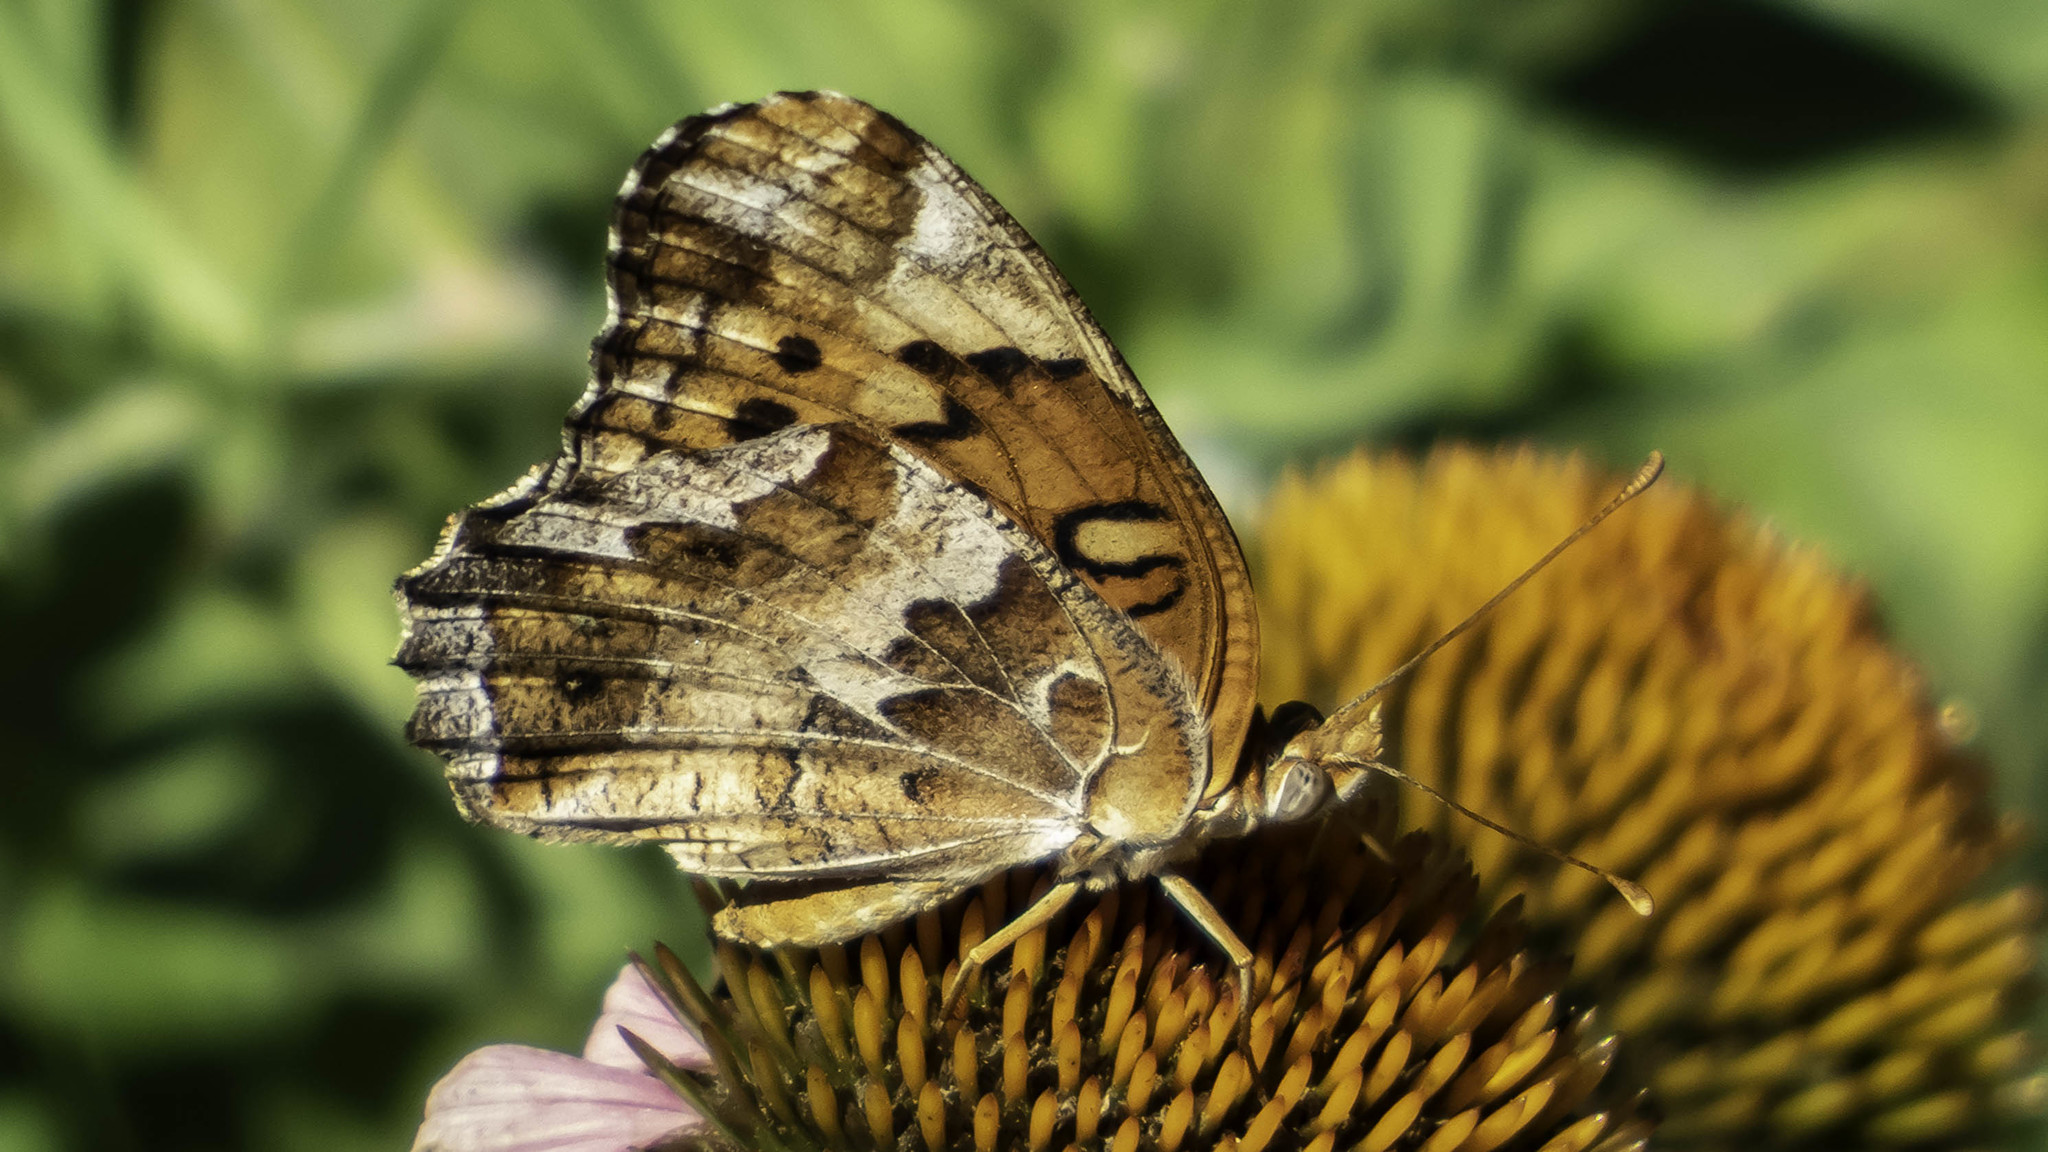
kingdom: Animalia
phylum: Arthropoda
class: Insecta
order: Lepidoptera
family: Nymphalidae
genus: Euptoieta
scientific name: Euptoieta claudia
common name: Variegated fritillary
